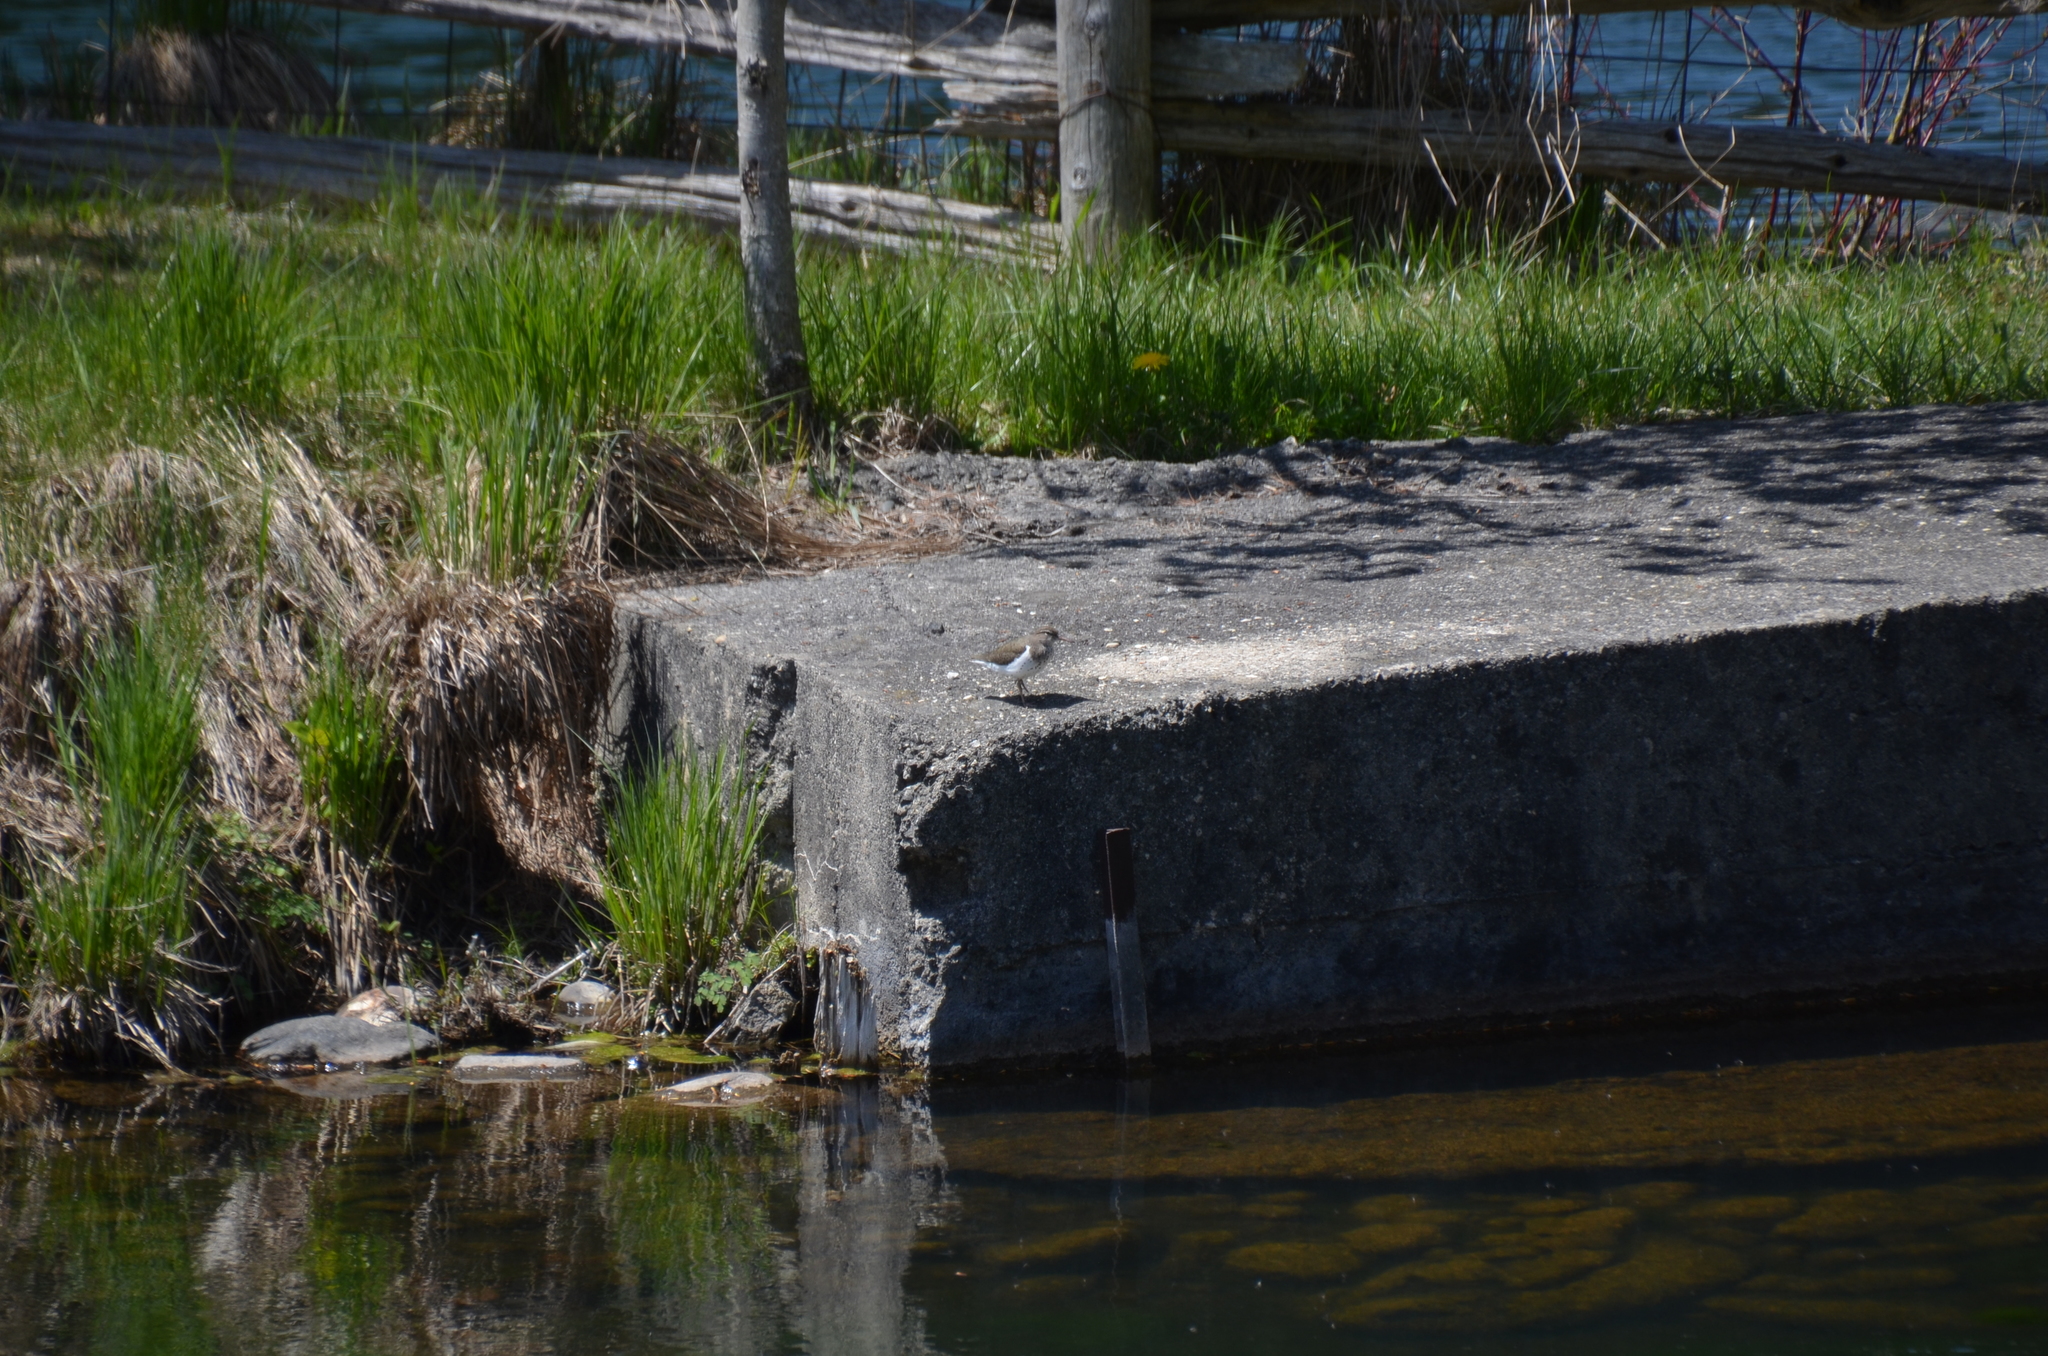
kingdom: Animalia
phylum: Chordata
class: Aves
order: Charadriiformes
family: Scolopacidae
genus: Actitis
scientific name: Actitis macularius
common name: Spotted sandpiper
